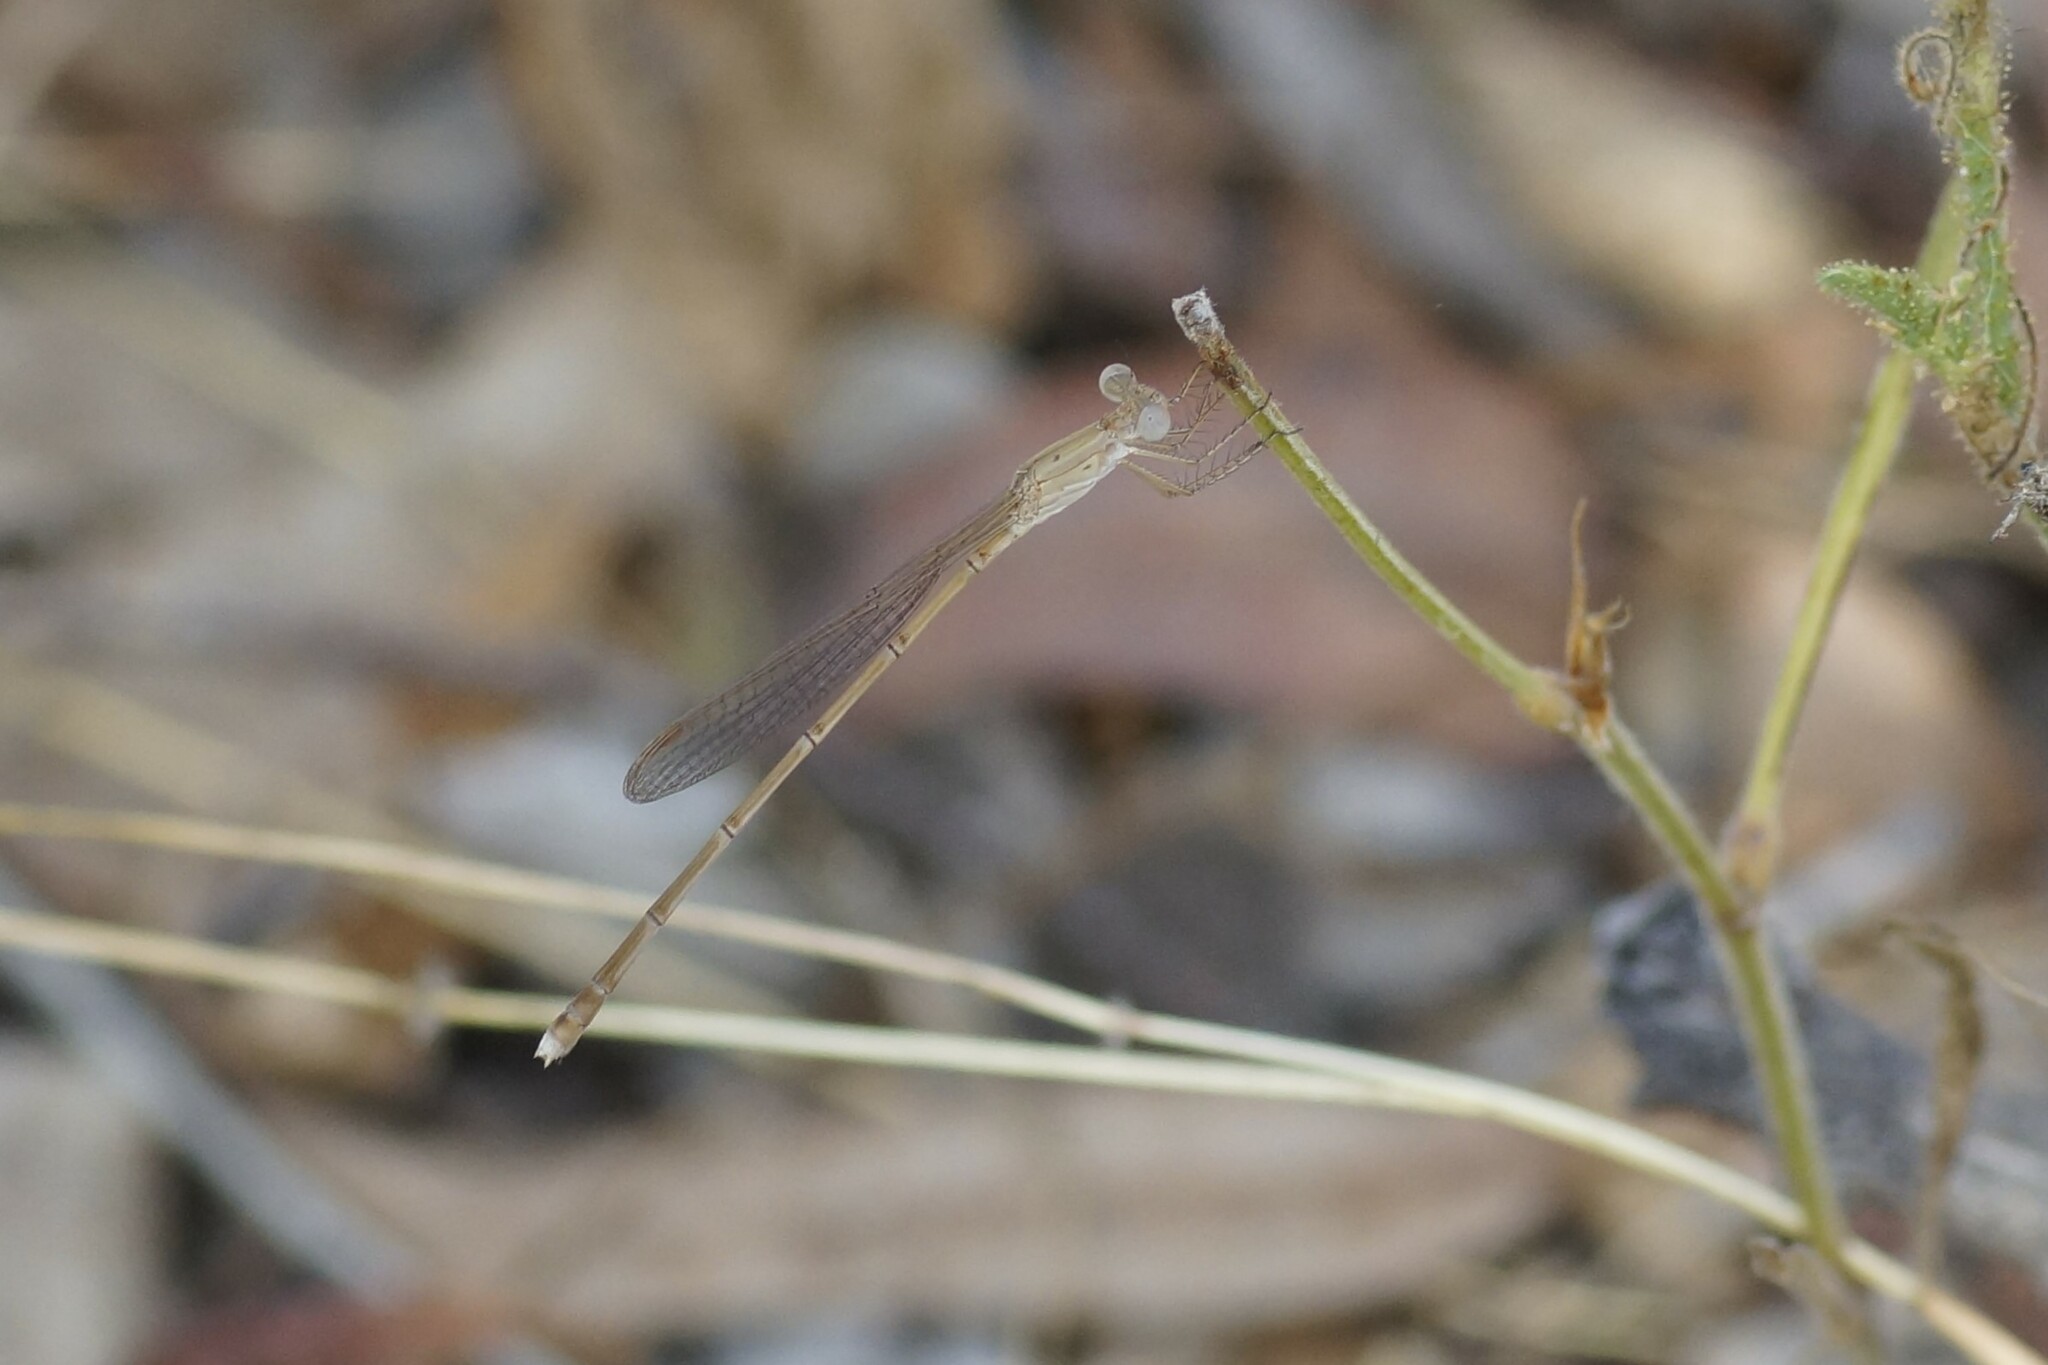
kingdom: Animalia
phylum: Arthropoda
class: Insecta
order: Odonata
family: Lestidae
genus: Indolestes
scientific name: Indolestes insularis
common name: Northern ringtail
